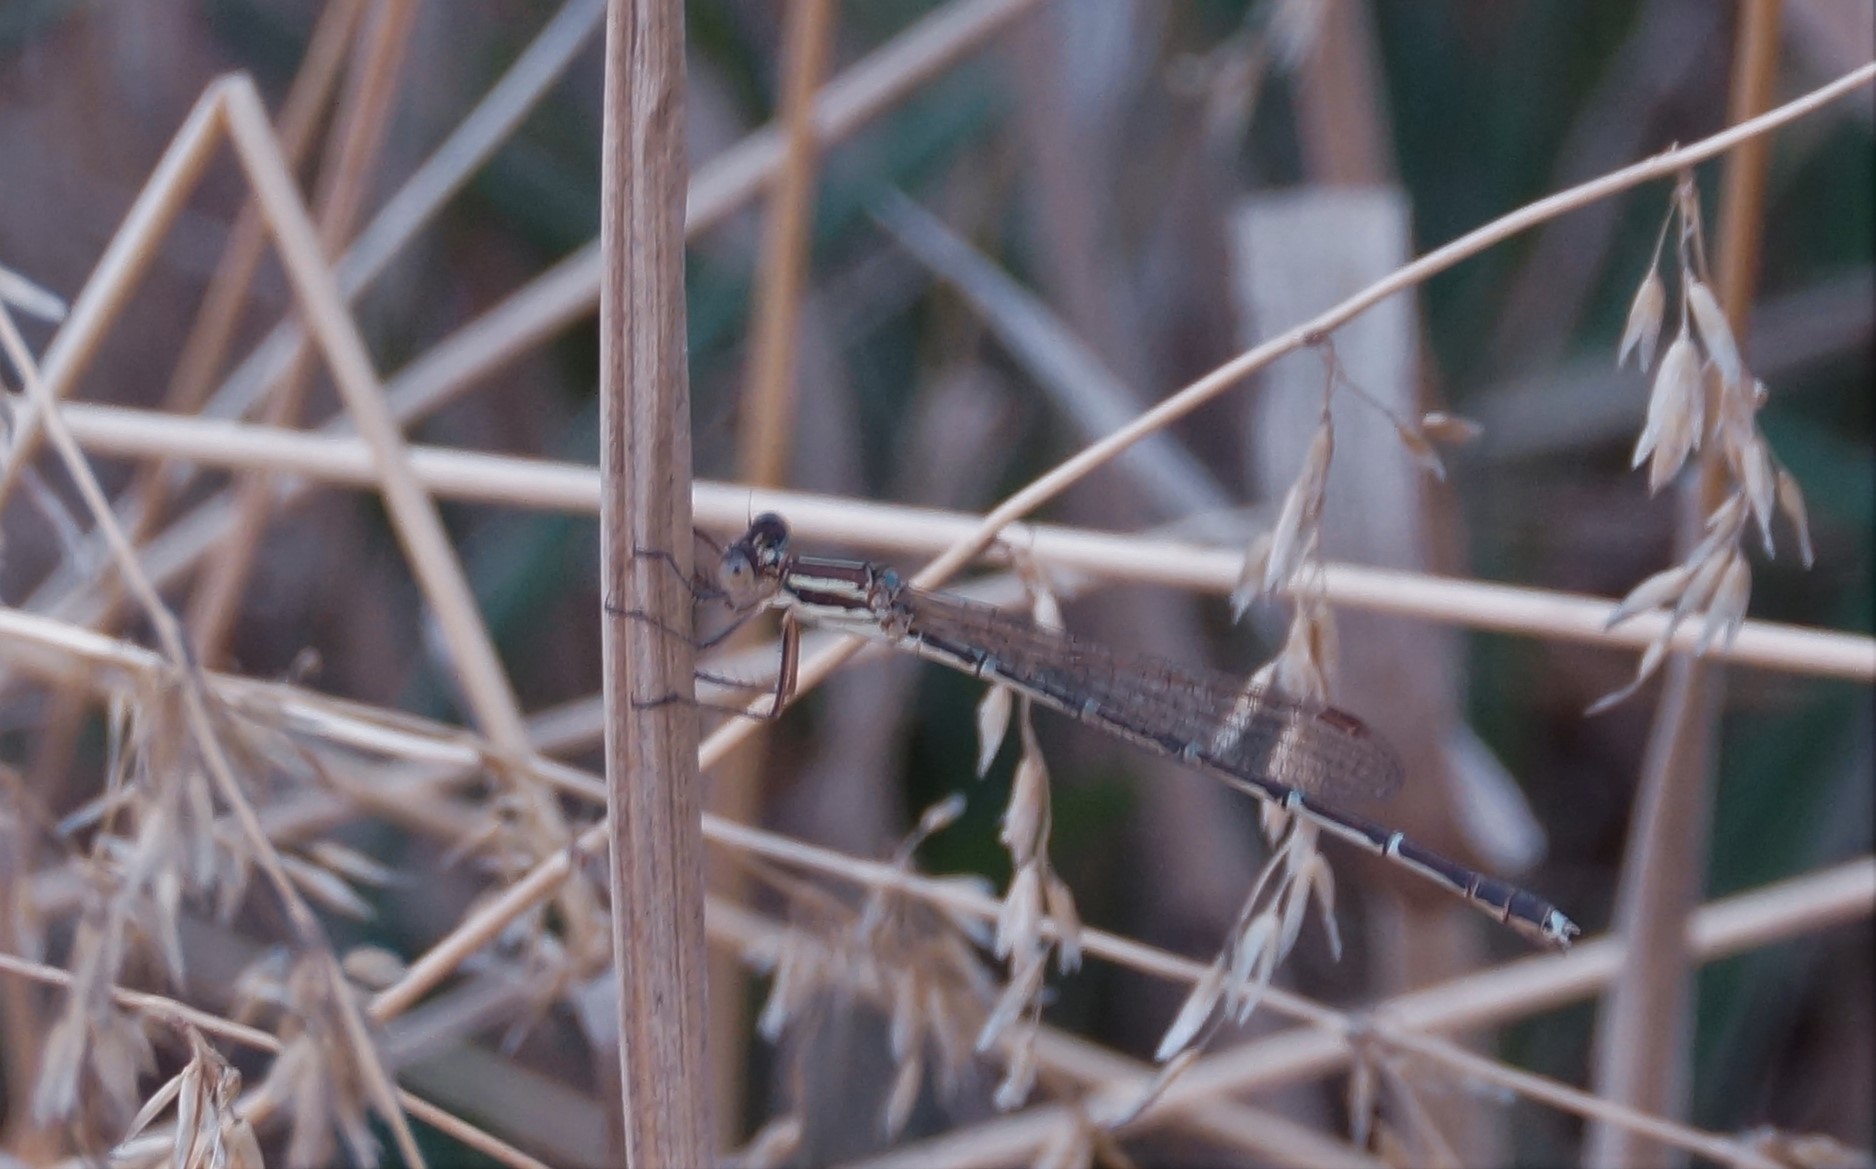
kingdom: Animalia
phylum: Arthropoda
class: Insecta
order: Odonata
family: Lestidae
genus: Austrolestes
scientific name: Austrolestes analis
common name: Slender ringtail
